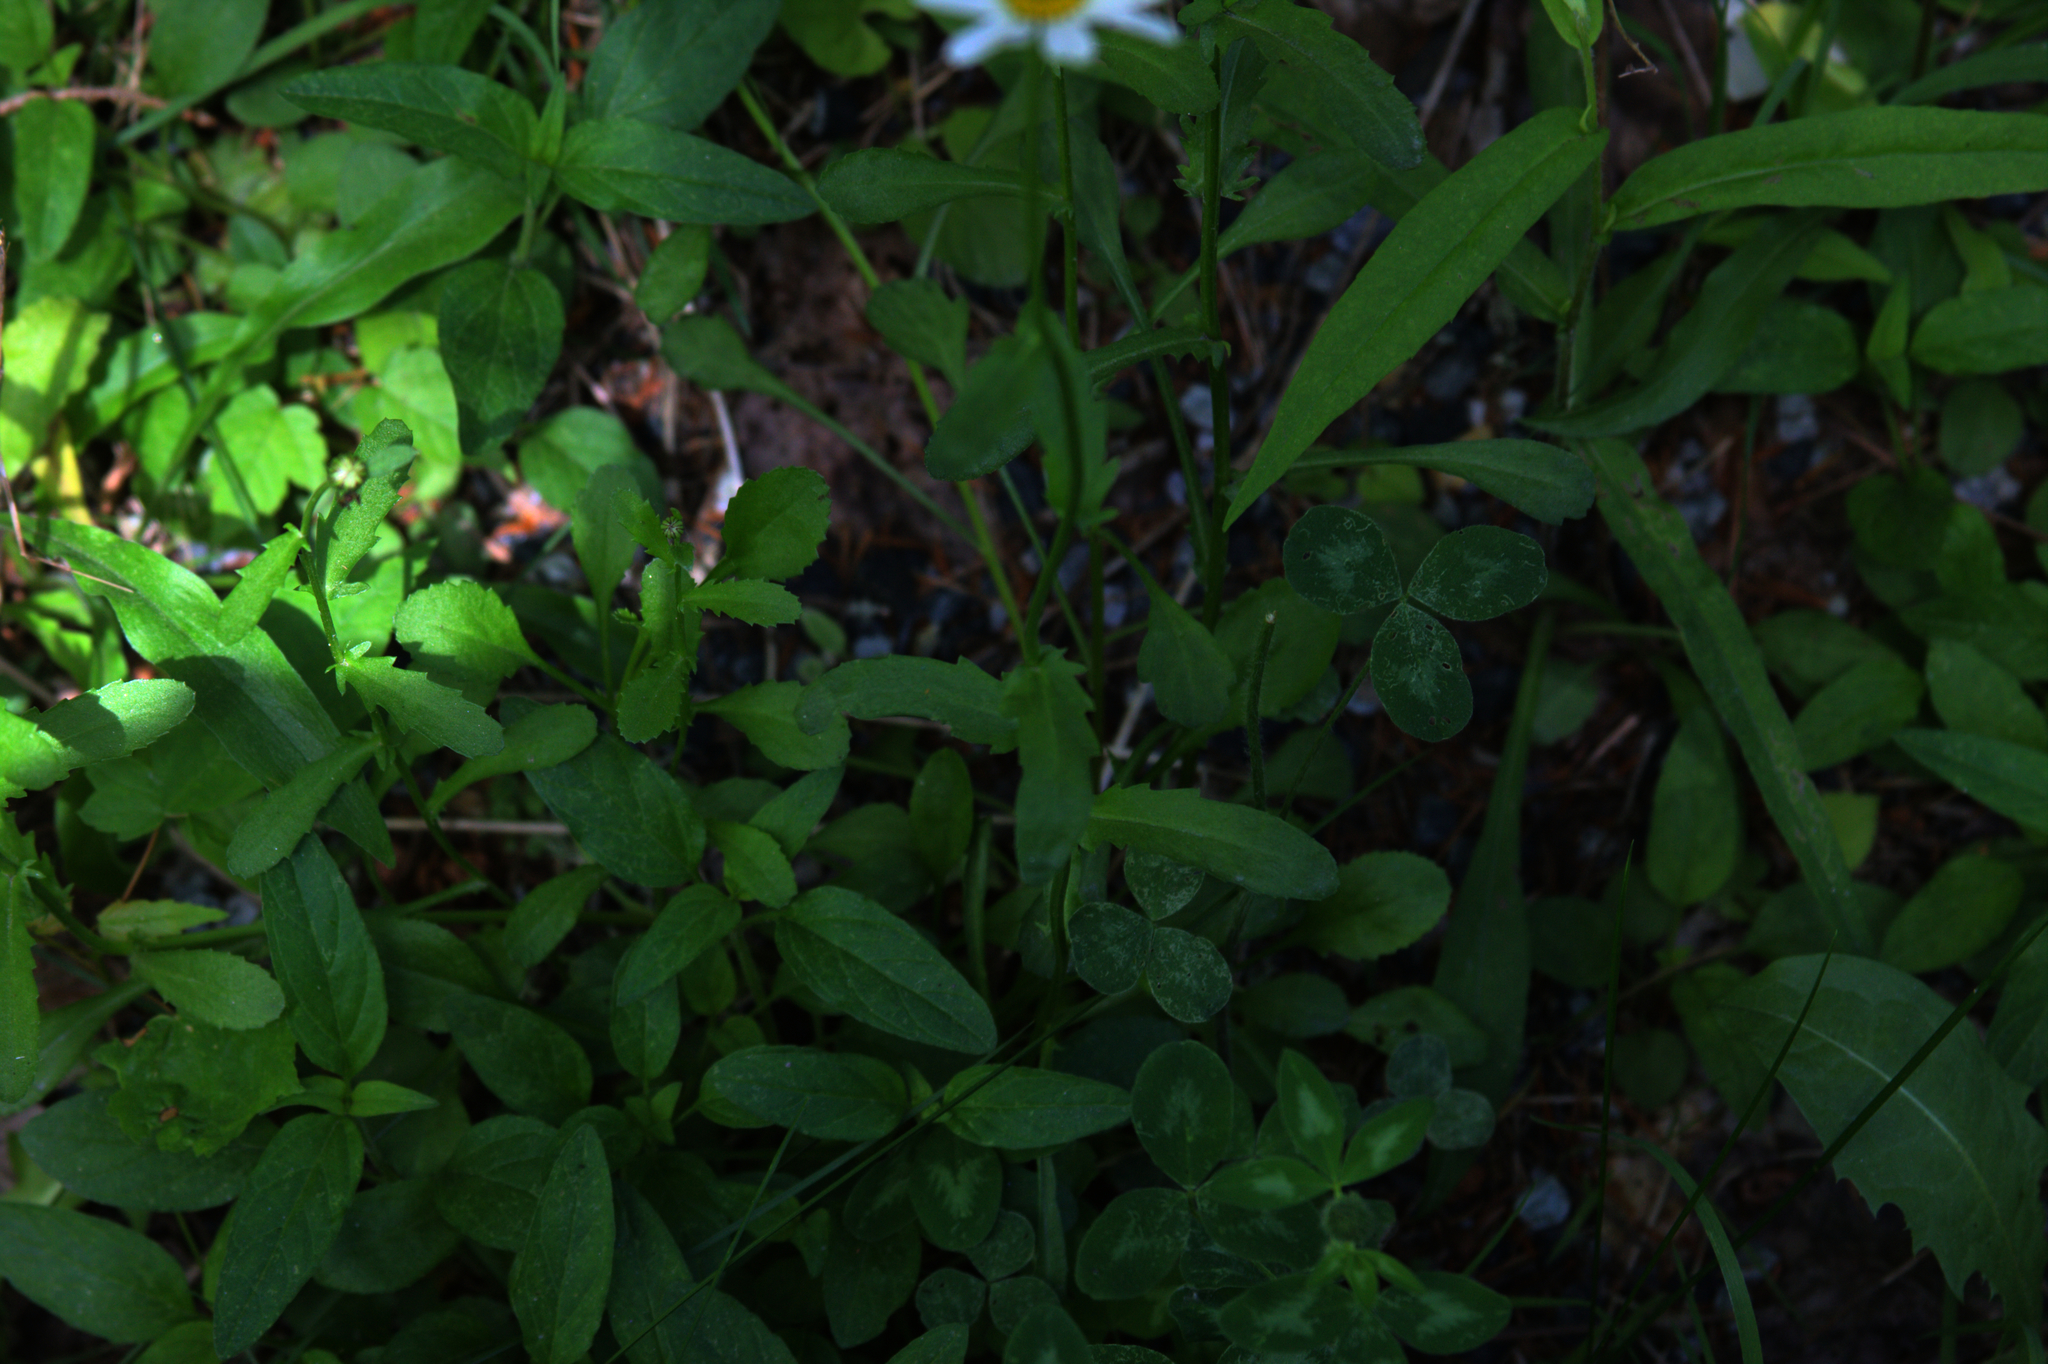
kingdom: Plantae
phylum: Tracheophyta
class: Magnoliopsida
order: Fabales
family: Fabaceae
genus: Trifolium
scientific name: Trifolium pratense
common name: Red clover
